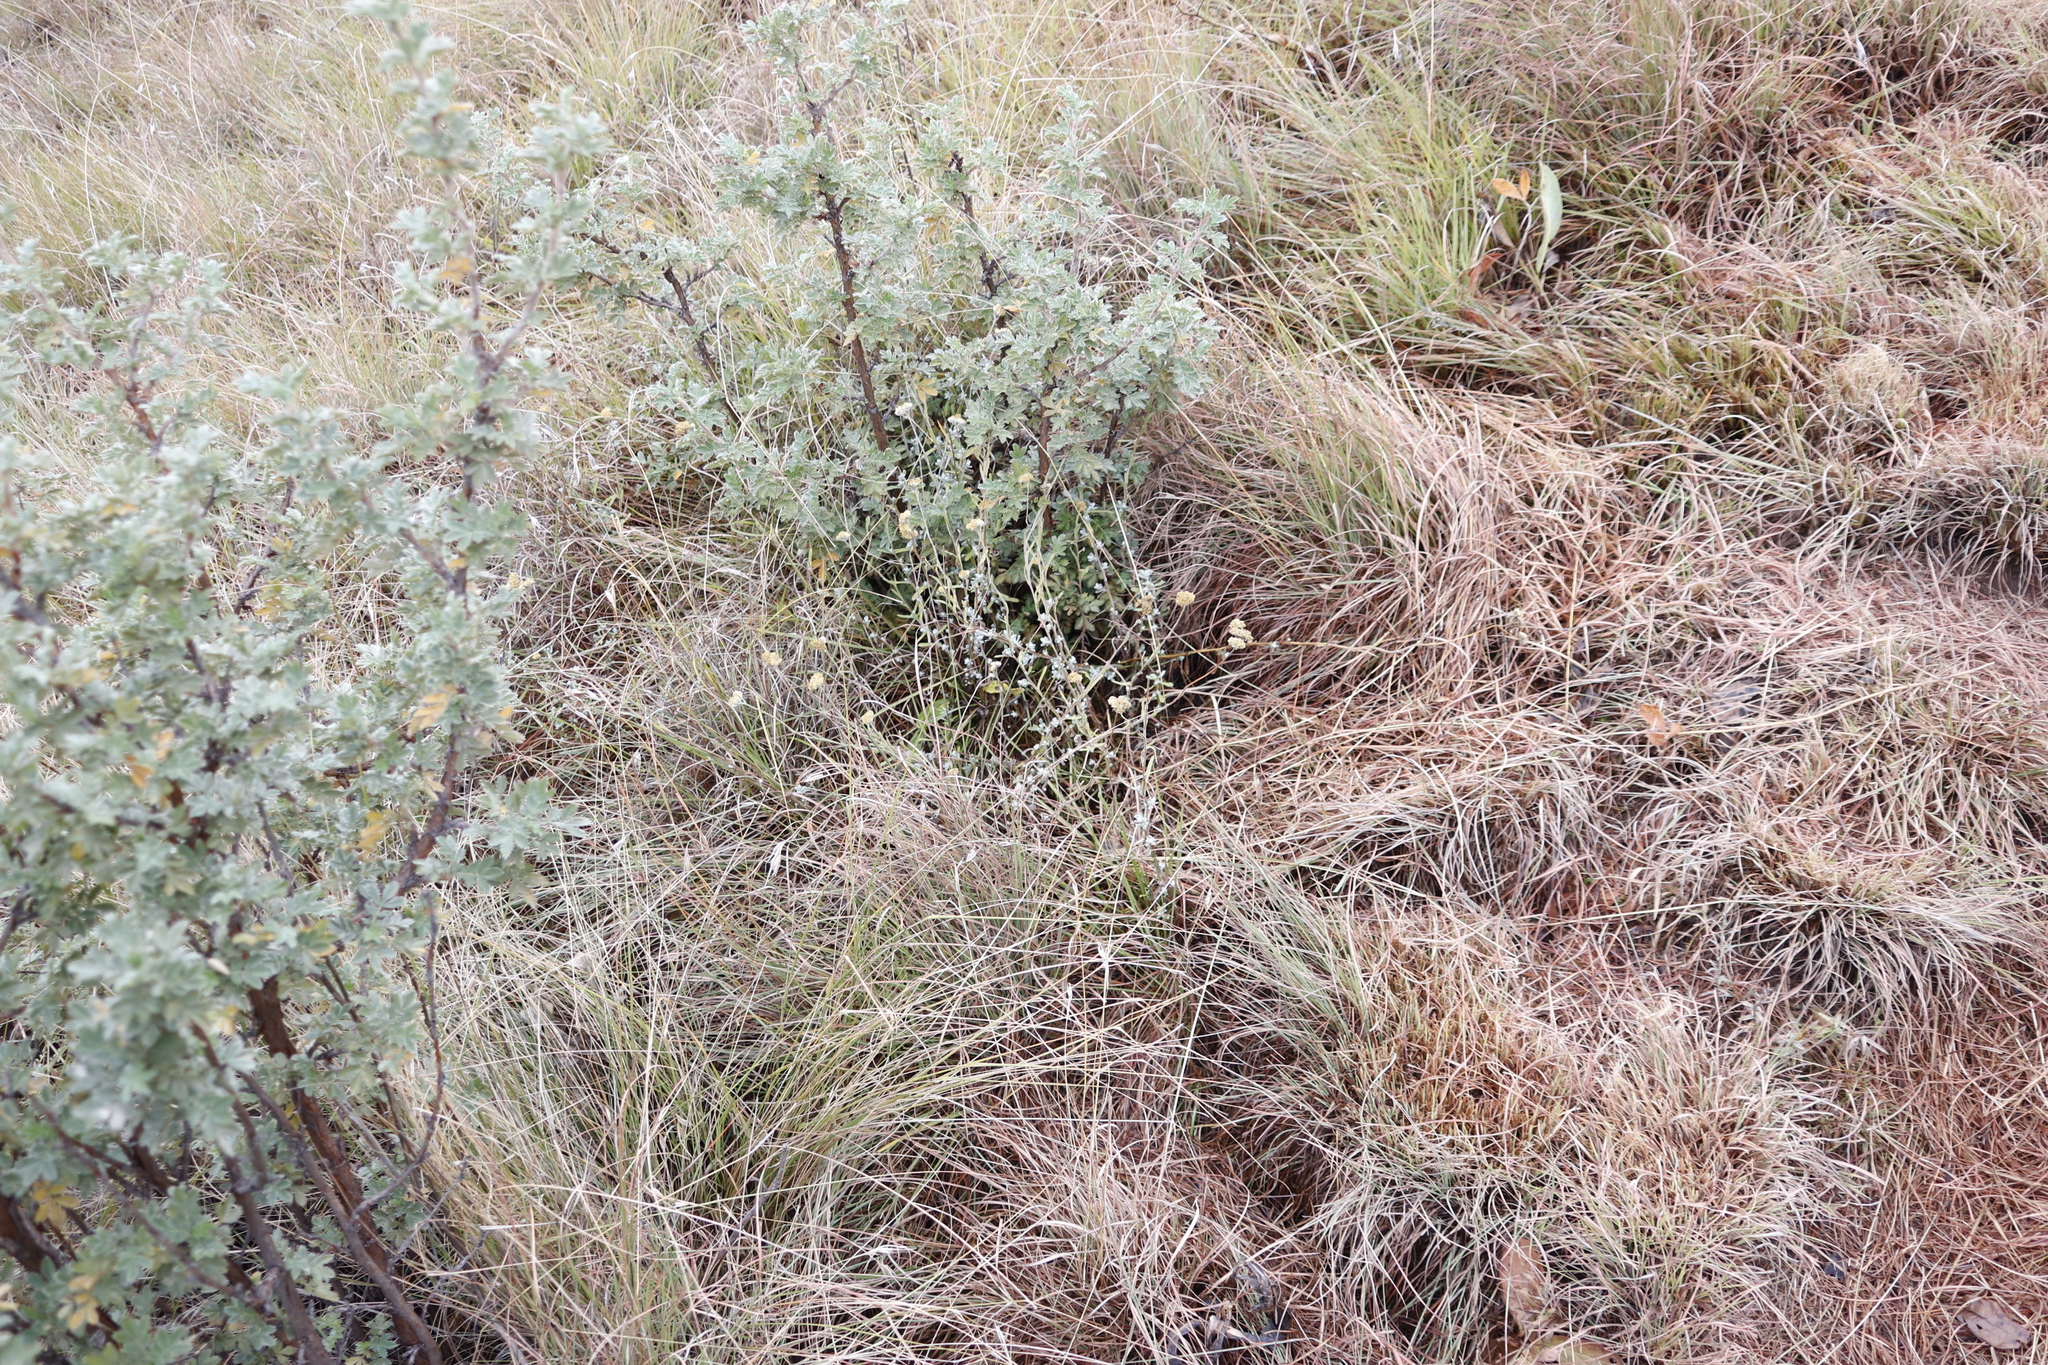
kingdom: Plantae
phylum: Tracheophyta
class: Magnoliopsida
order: Rosales
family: Rosaceae
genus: Leucosidea
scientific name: Leucosidea sericea
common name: Oldwood
